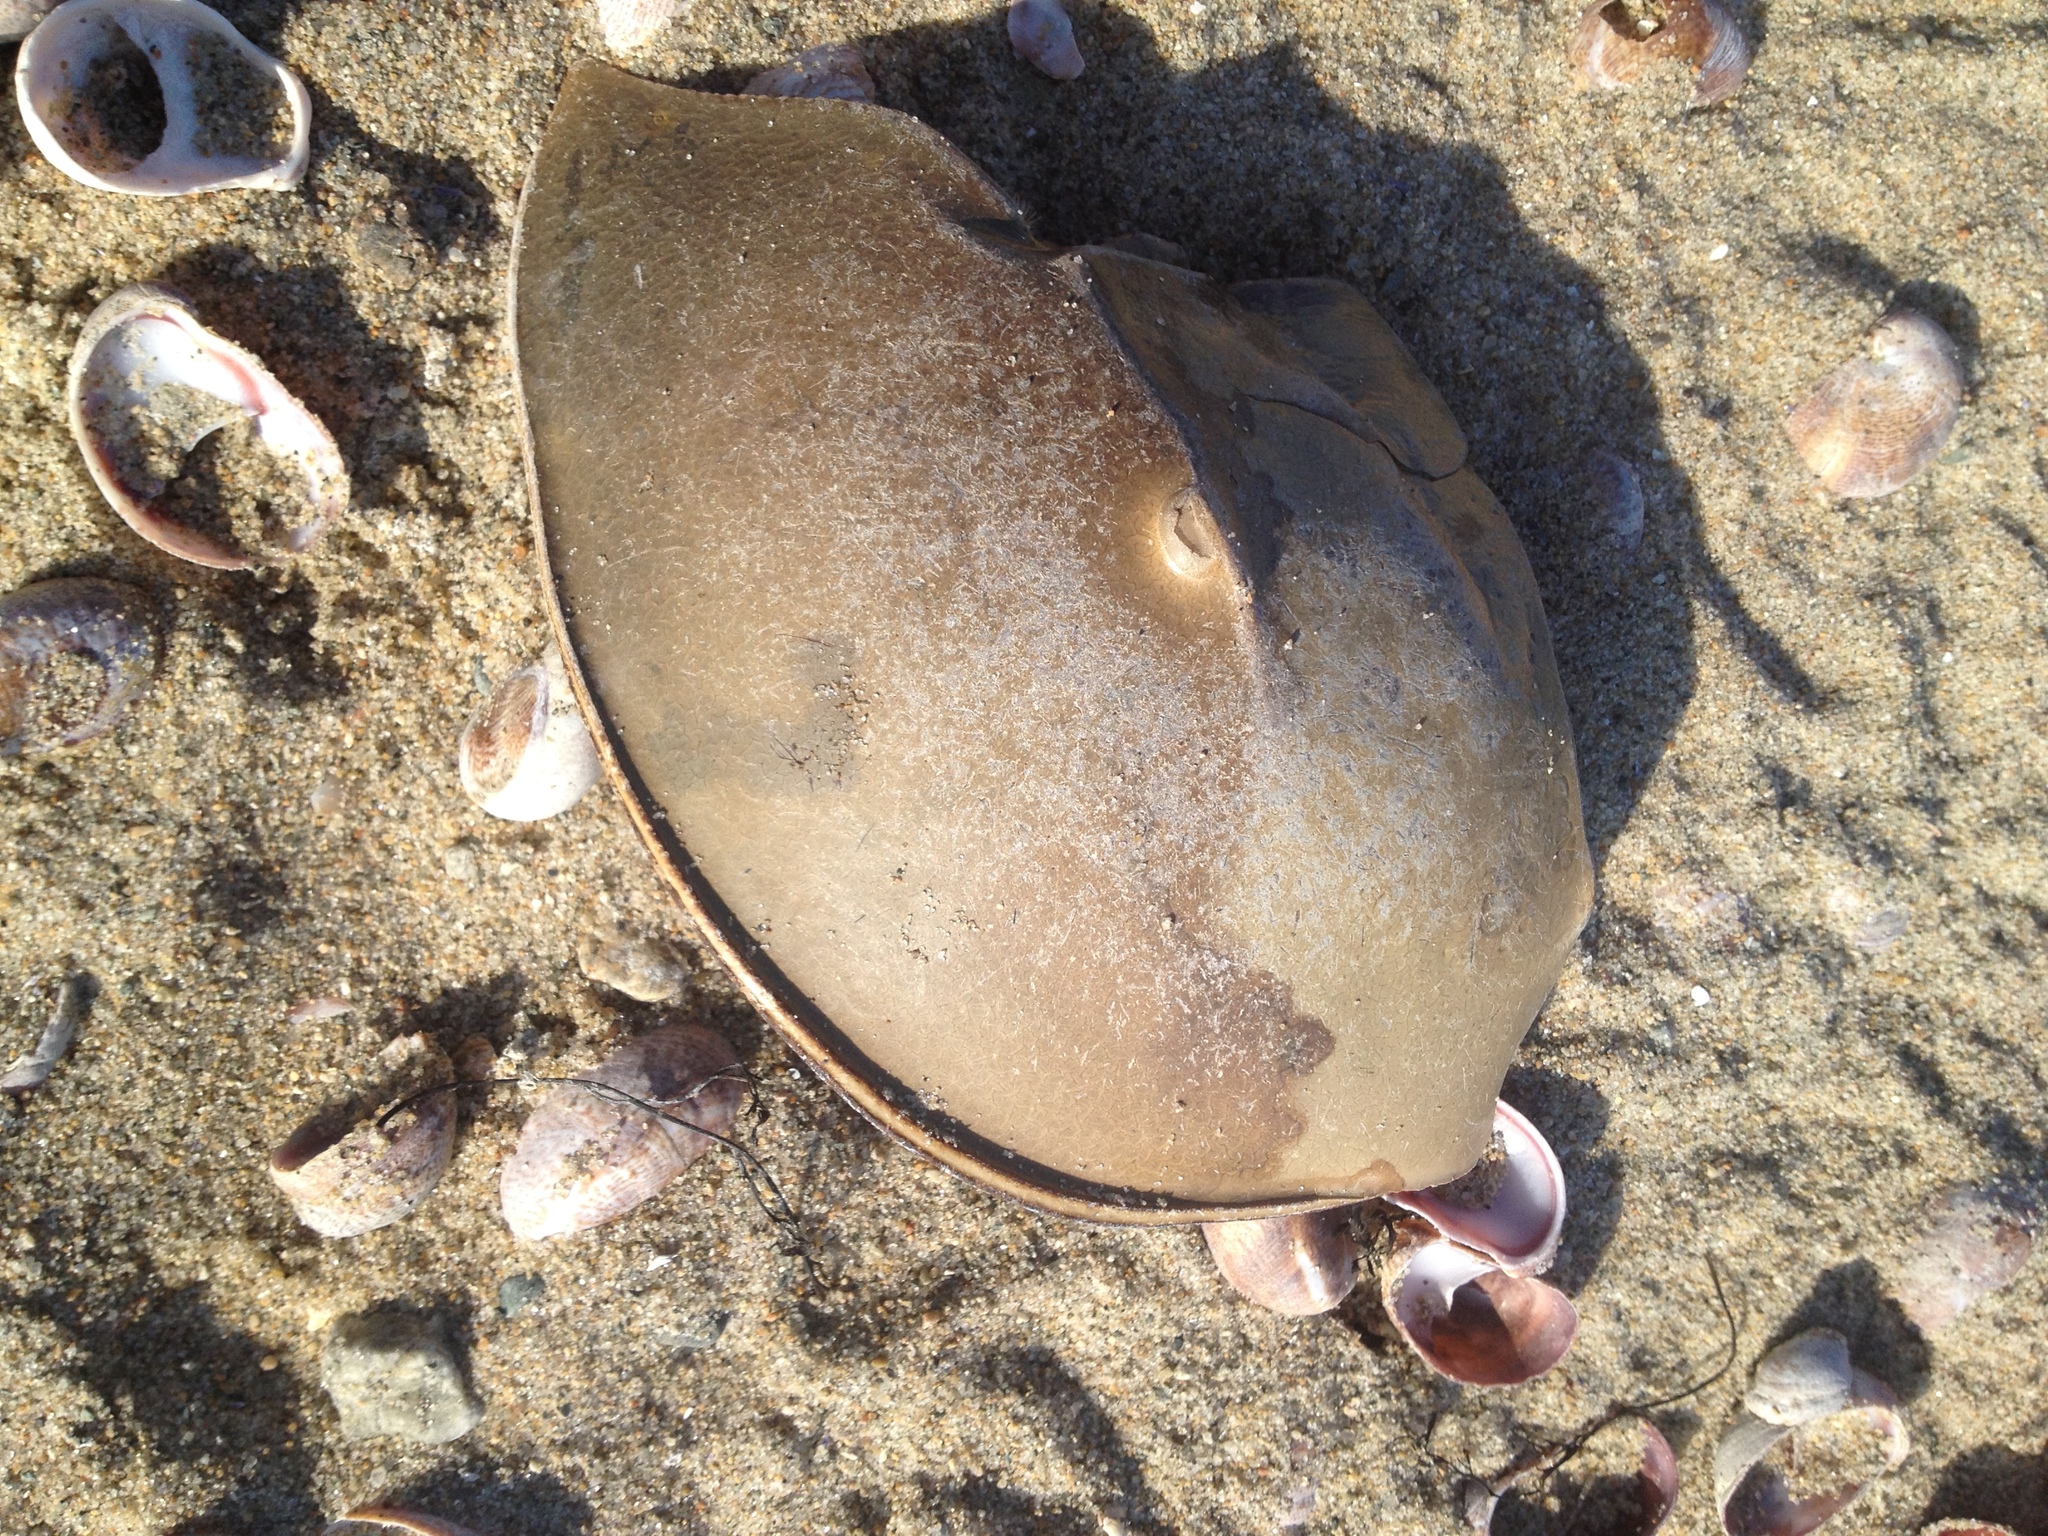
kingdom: Animalia
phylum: Arthropoda
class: Merostomata
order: Xiphosurida
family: Limulidae
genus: Limulus
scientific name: Limulus polyphemus
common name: Horseshoe crab
